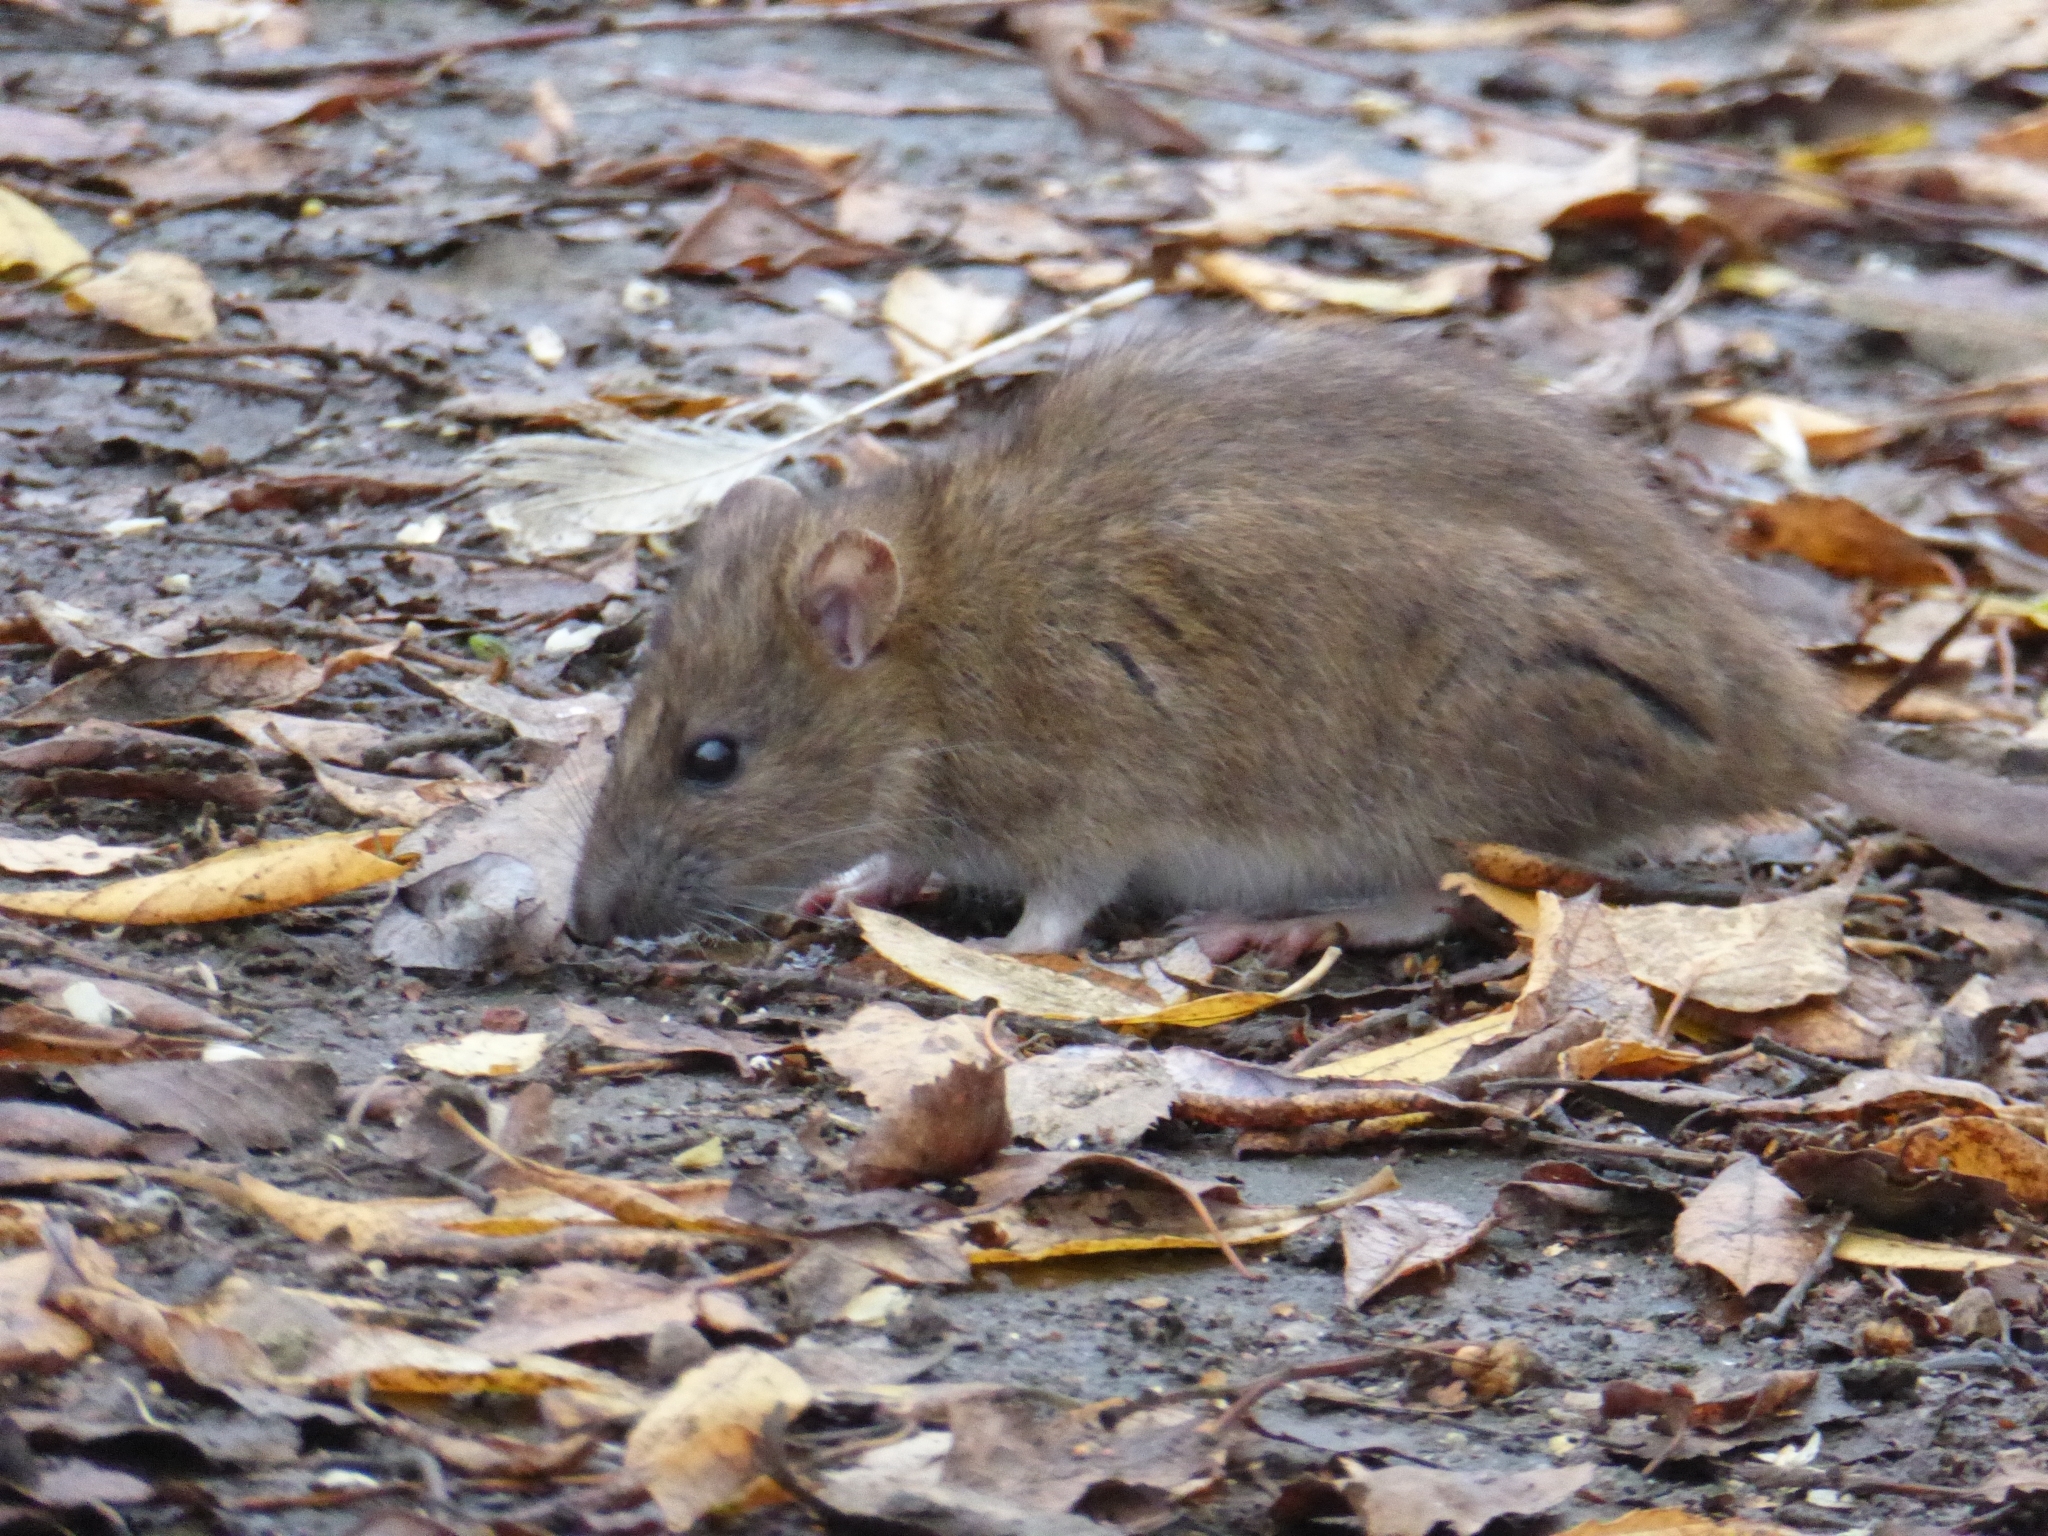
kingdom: Animalia
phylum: Chordata
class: Mammalia
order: Rodentia
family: Muridae
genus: Rattus
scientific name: Rattus norvegicus
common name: Brown rat
